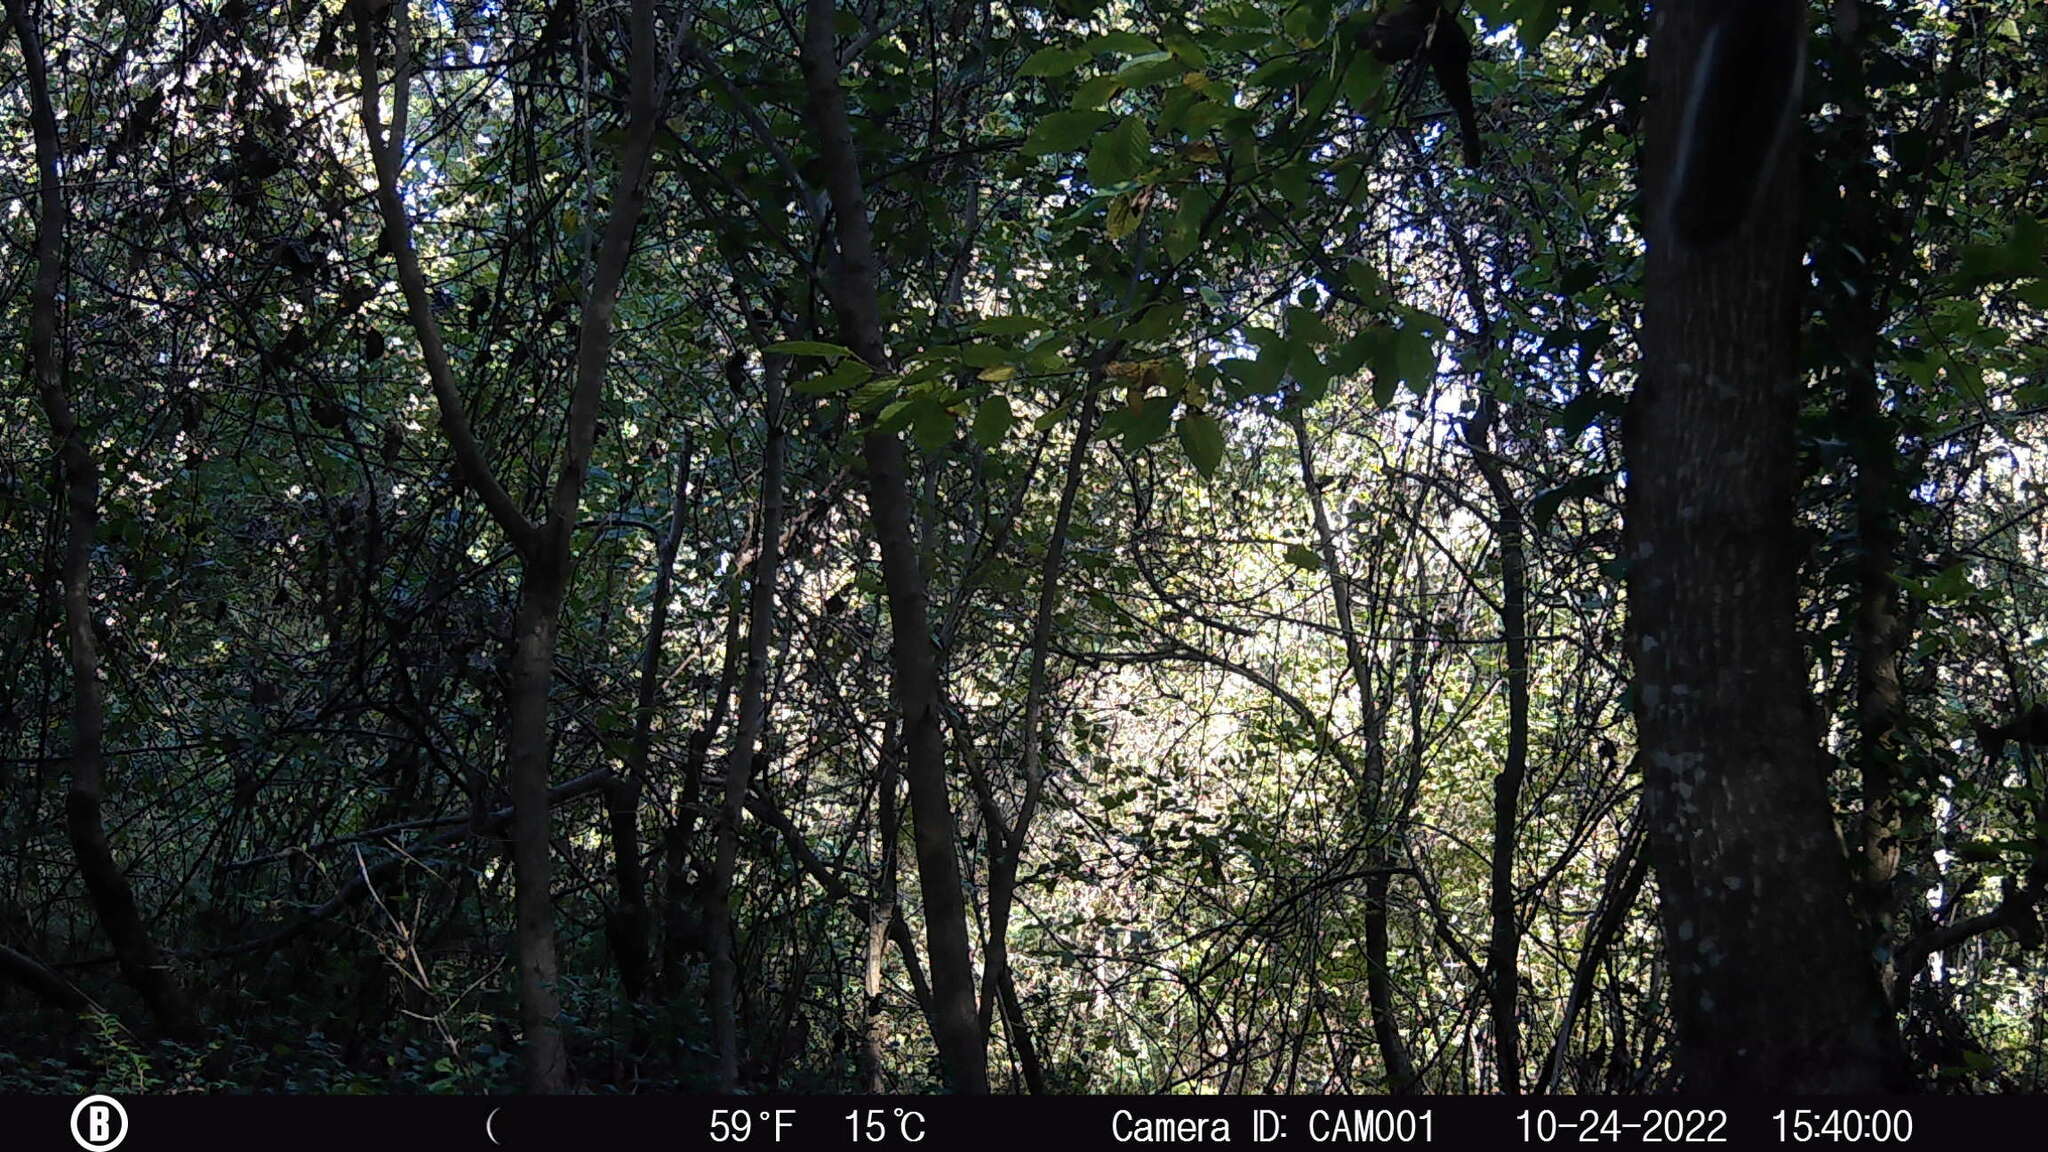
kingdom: Animalia
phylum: Chordata
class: Mammalia
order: Rodentia
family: Sciuridae
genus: Sciurus
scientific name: Sciurus carolinensis
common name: Eastern gray squirrel
